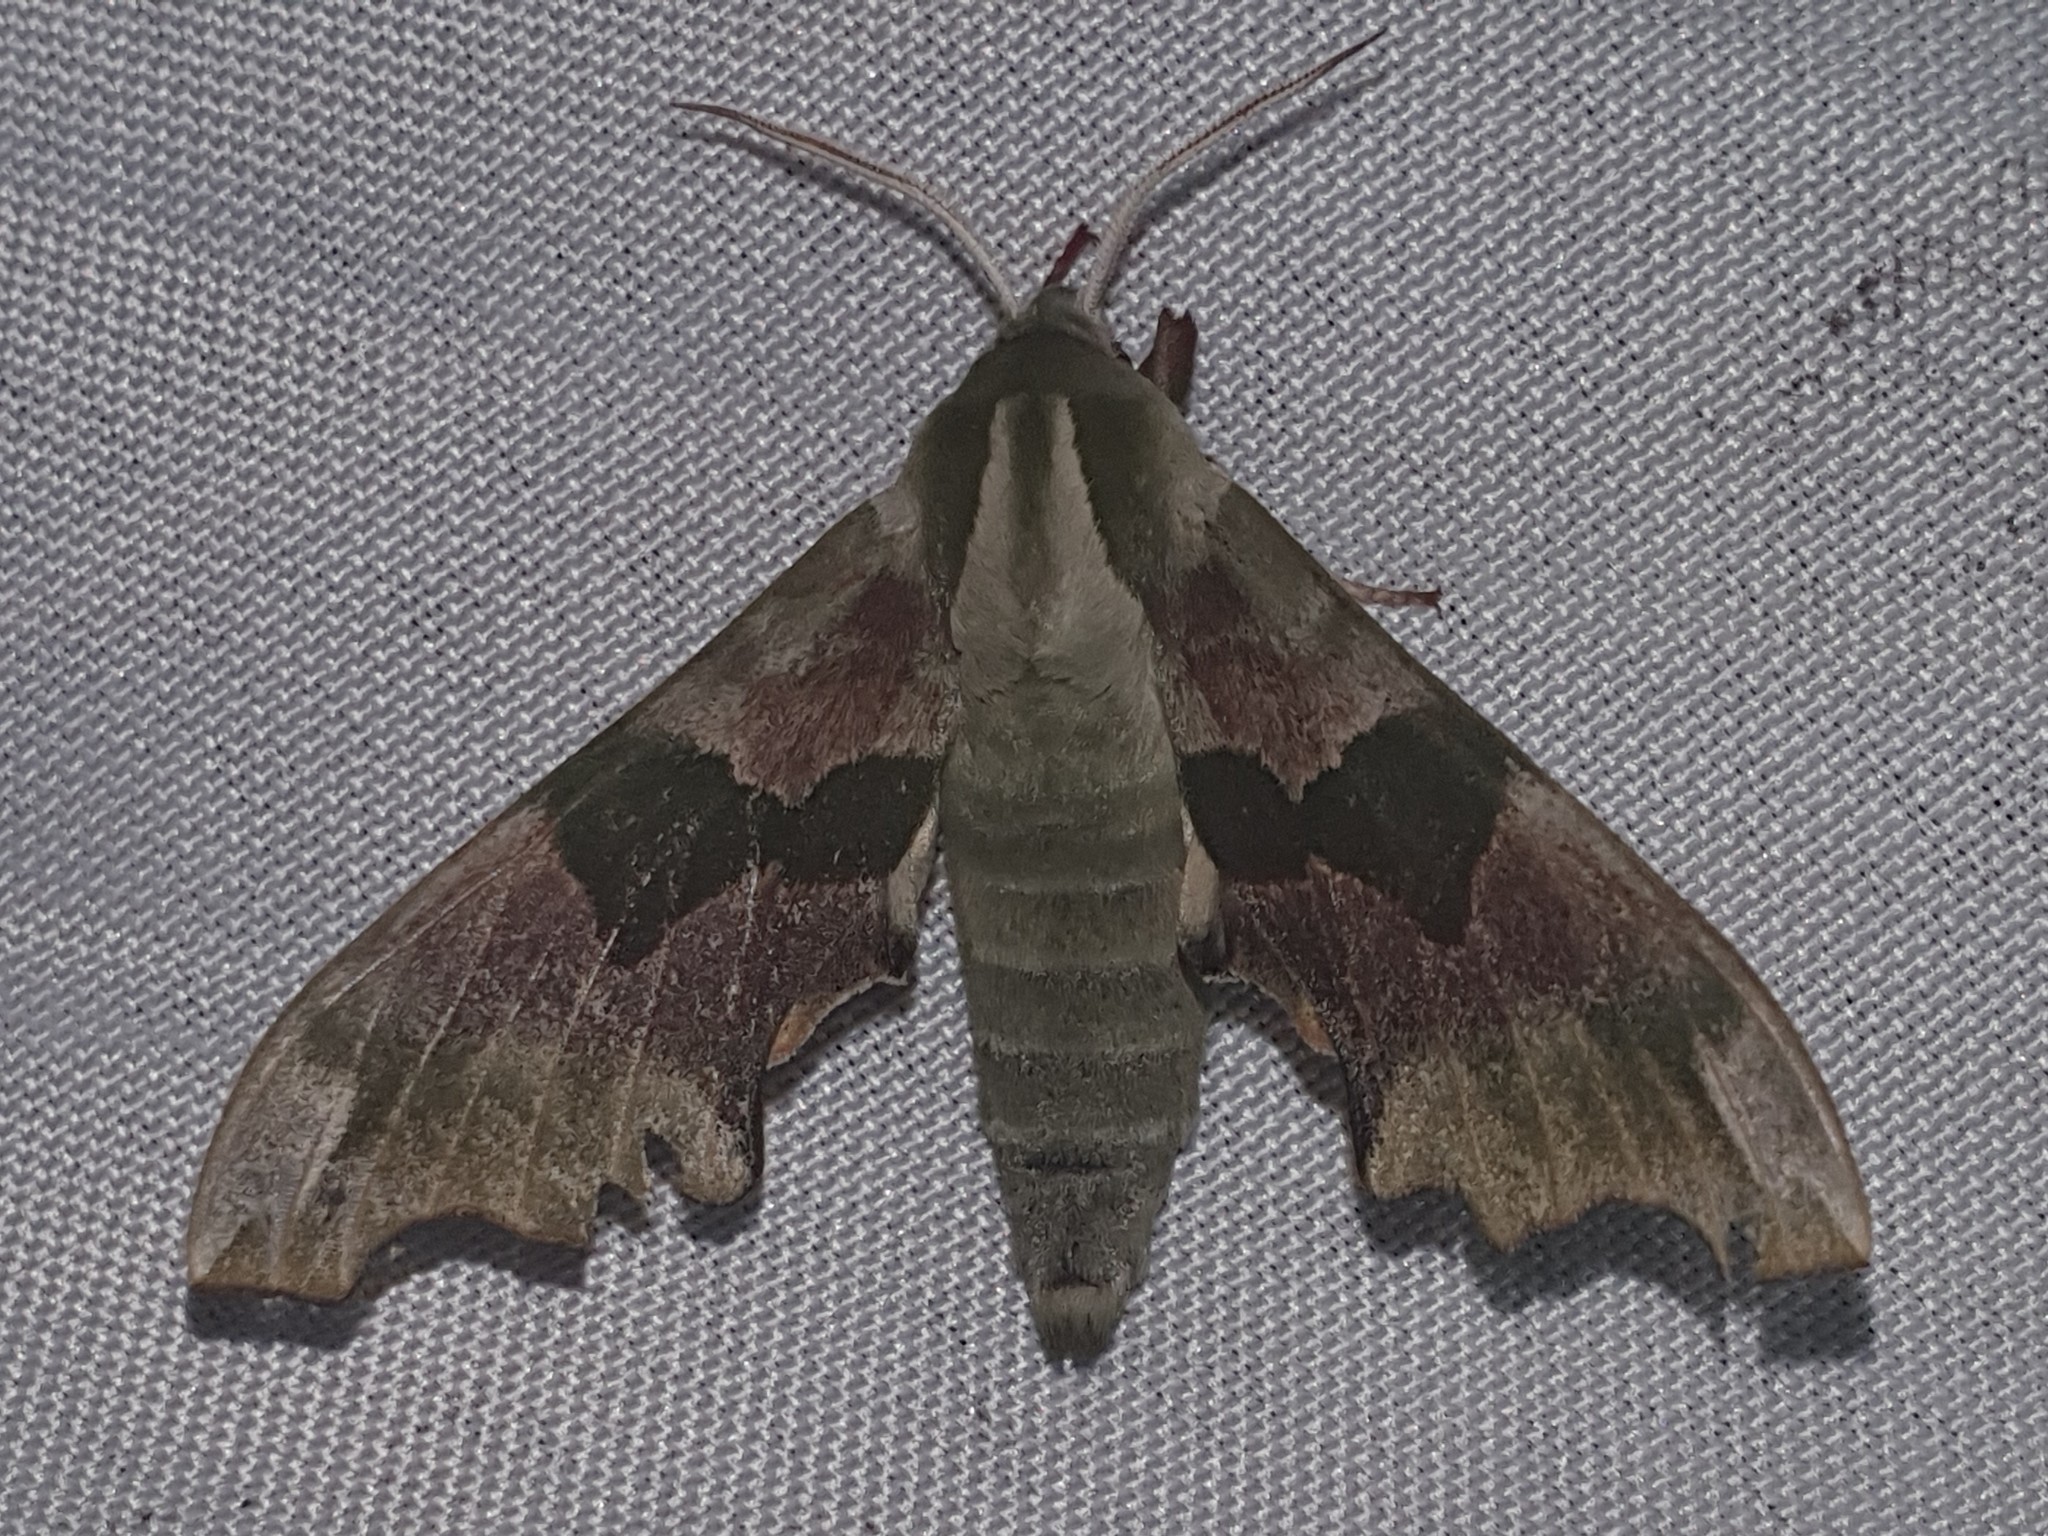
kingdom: Animalia
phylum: Arthropoda
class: Insecta
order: Lepidoptera
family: Sphingidae
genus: Mimas
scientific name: Mimas tiliae
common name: Lime hawk-moth
